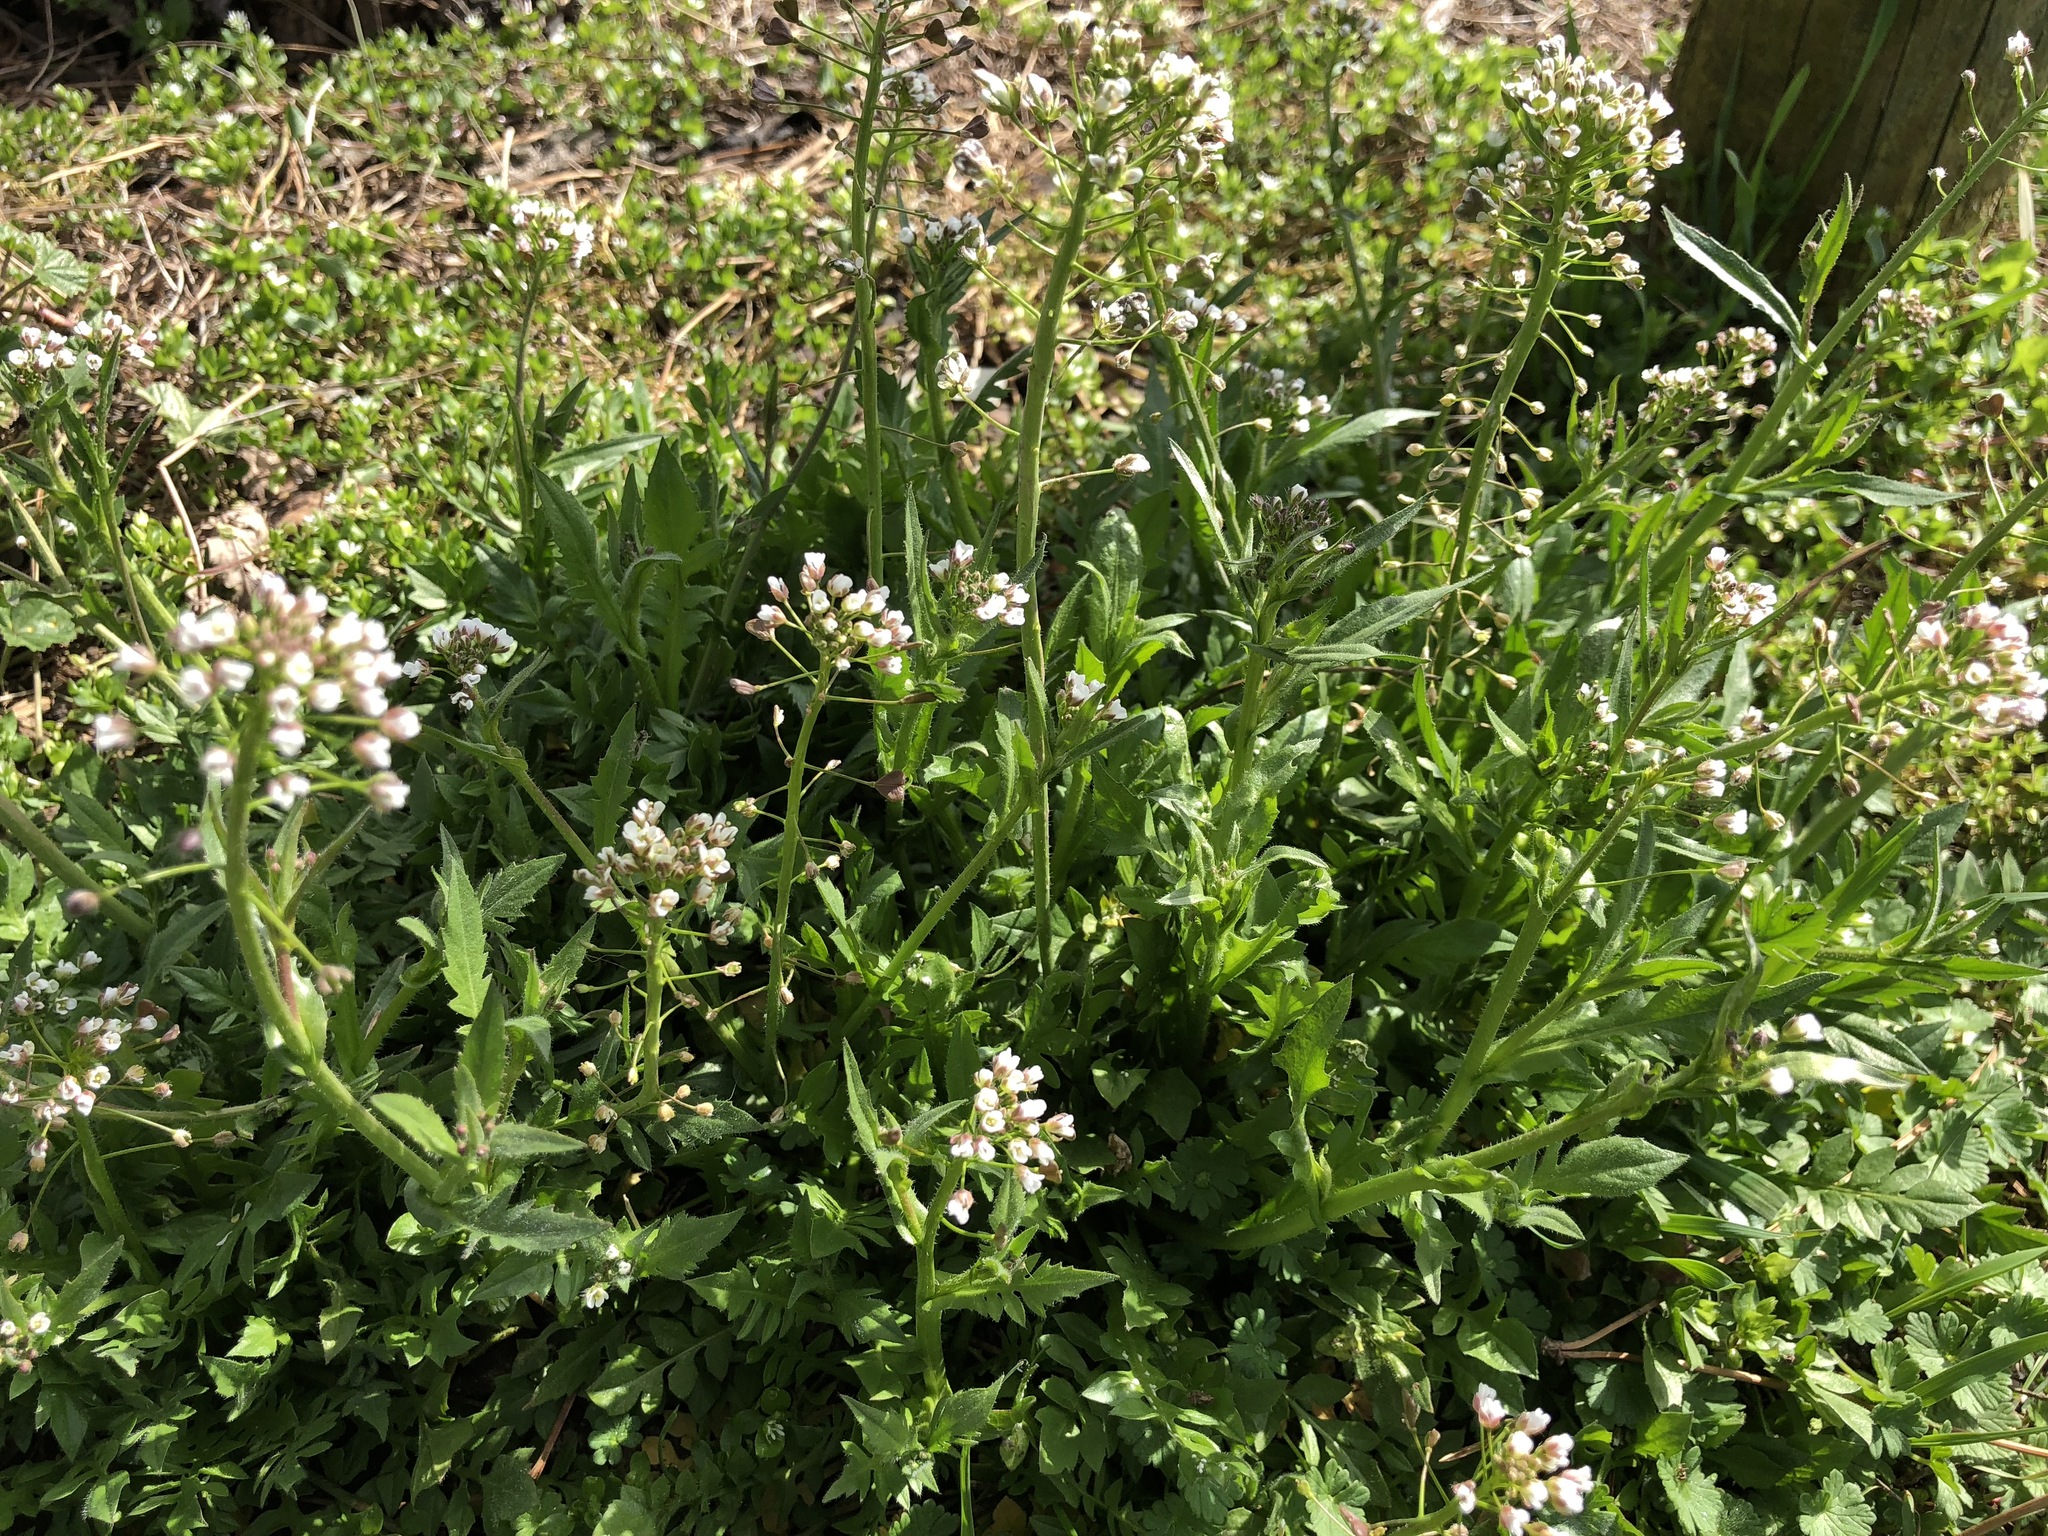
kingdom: Plantae
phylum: Tracheophyta
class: Magnoliopsida
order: Brassicales
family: Brassicaceae
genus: Capsella
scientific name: Capsella bursa-pastoris
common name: Shepherd's purse
